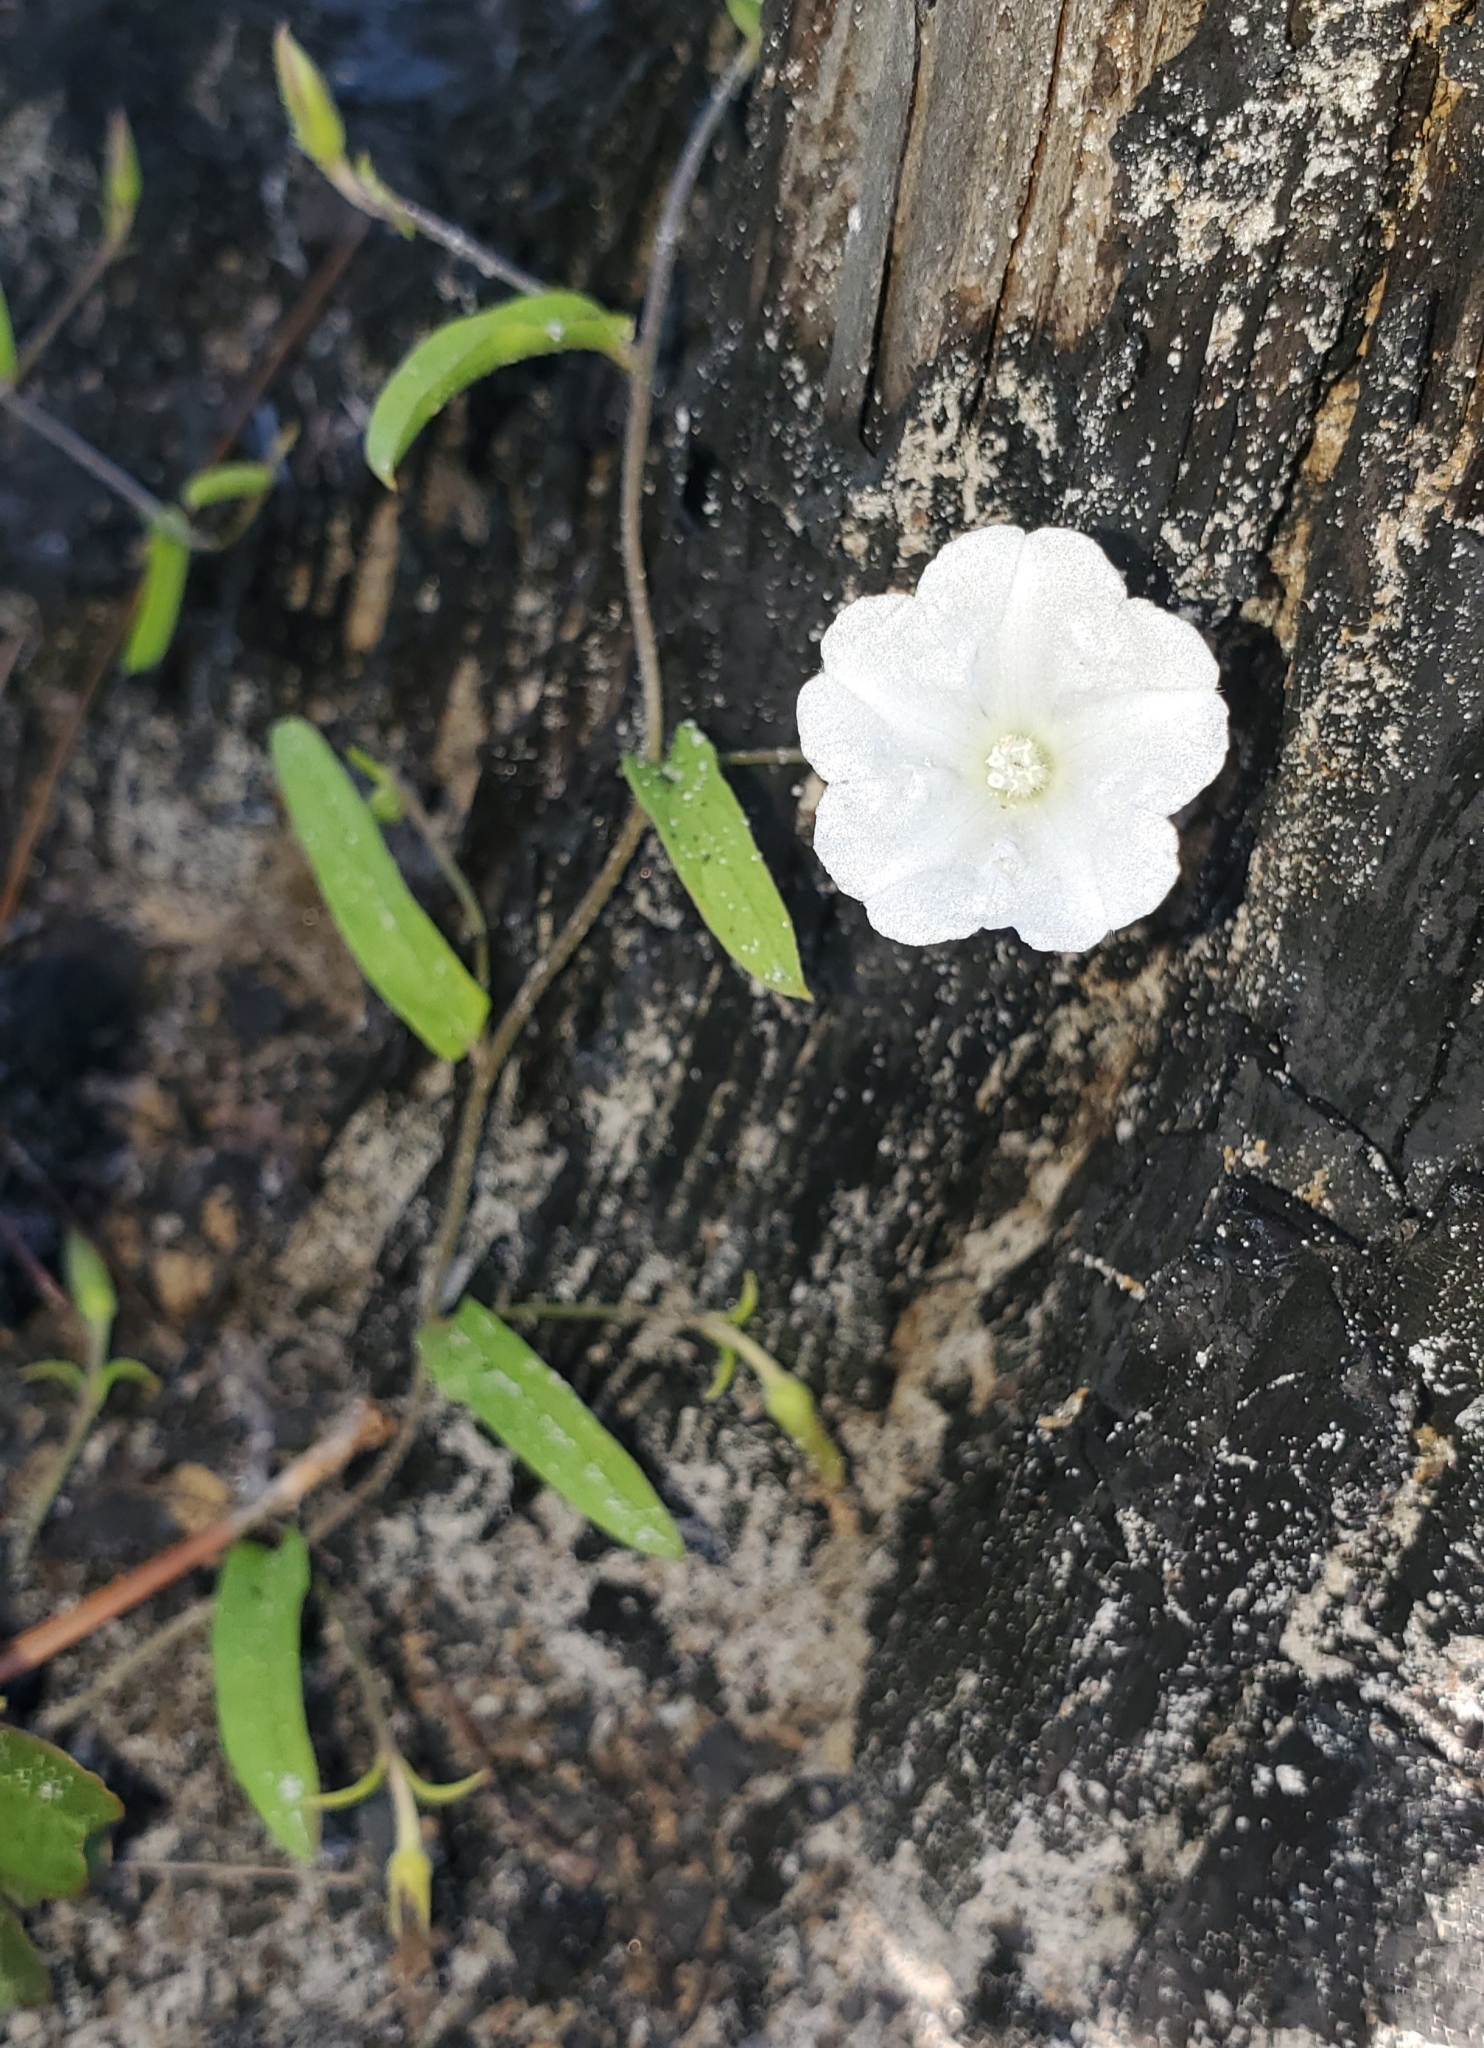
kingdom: Plantae
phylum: Tracheophyta
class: Magnoliopsida
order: Solanales
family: Convolvulaceae
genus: Stylisma
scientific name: Stylisma patens
